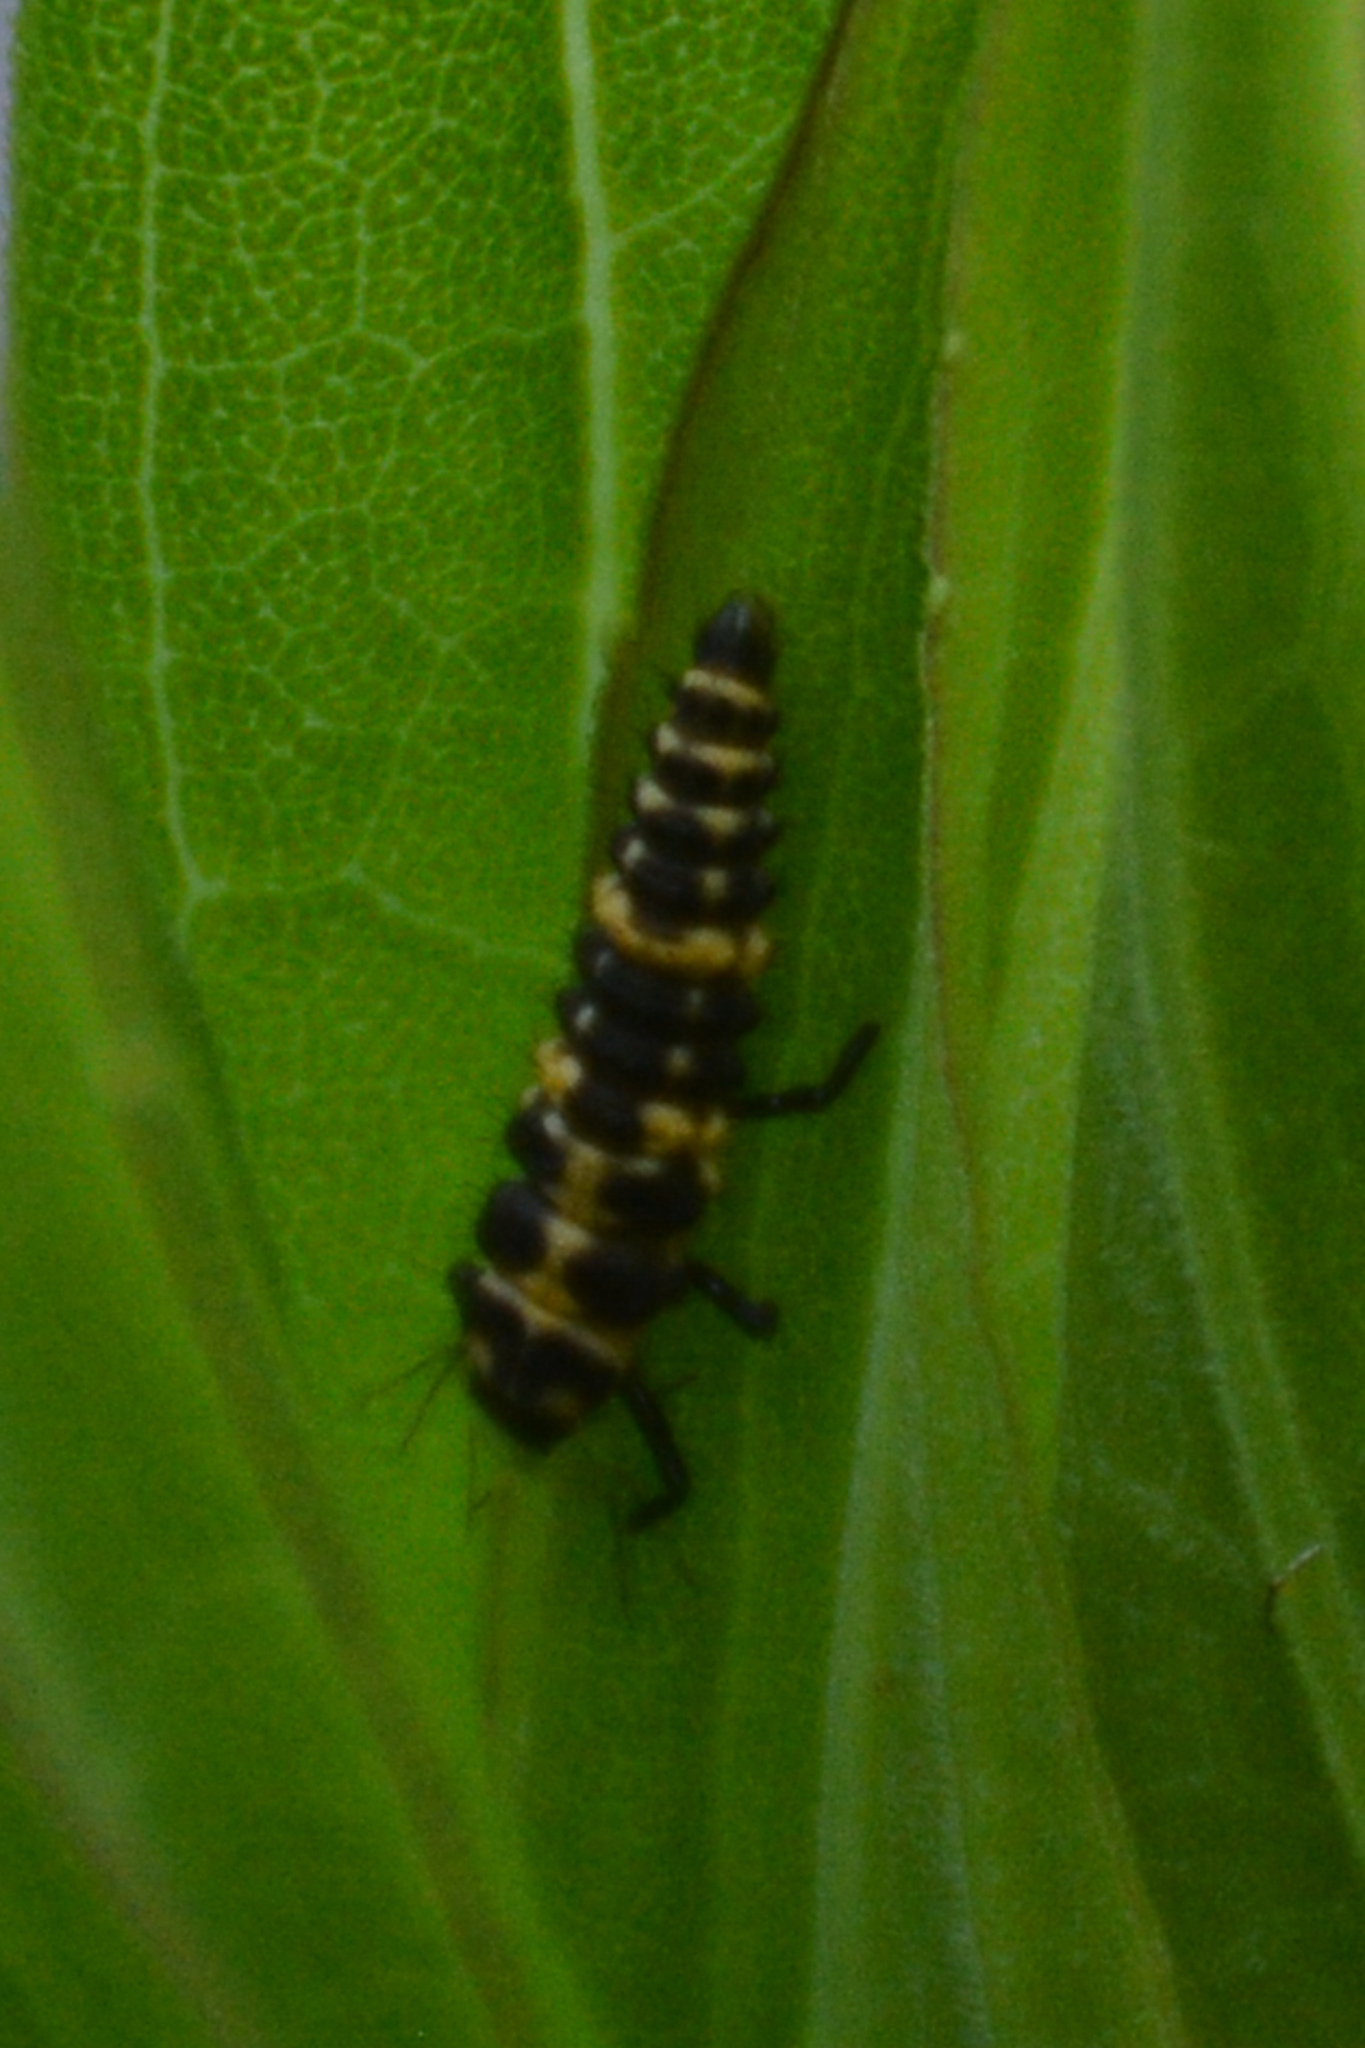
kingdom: Animalia
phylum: Arthropoda
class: Insecta
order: Coleoptera
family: Coccinellidae
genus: Coleomegilla
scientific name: Coleomegilla maculata
